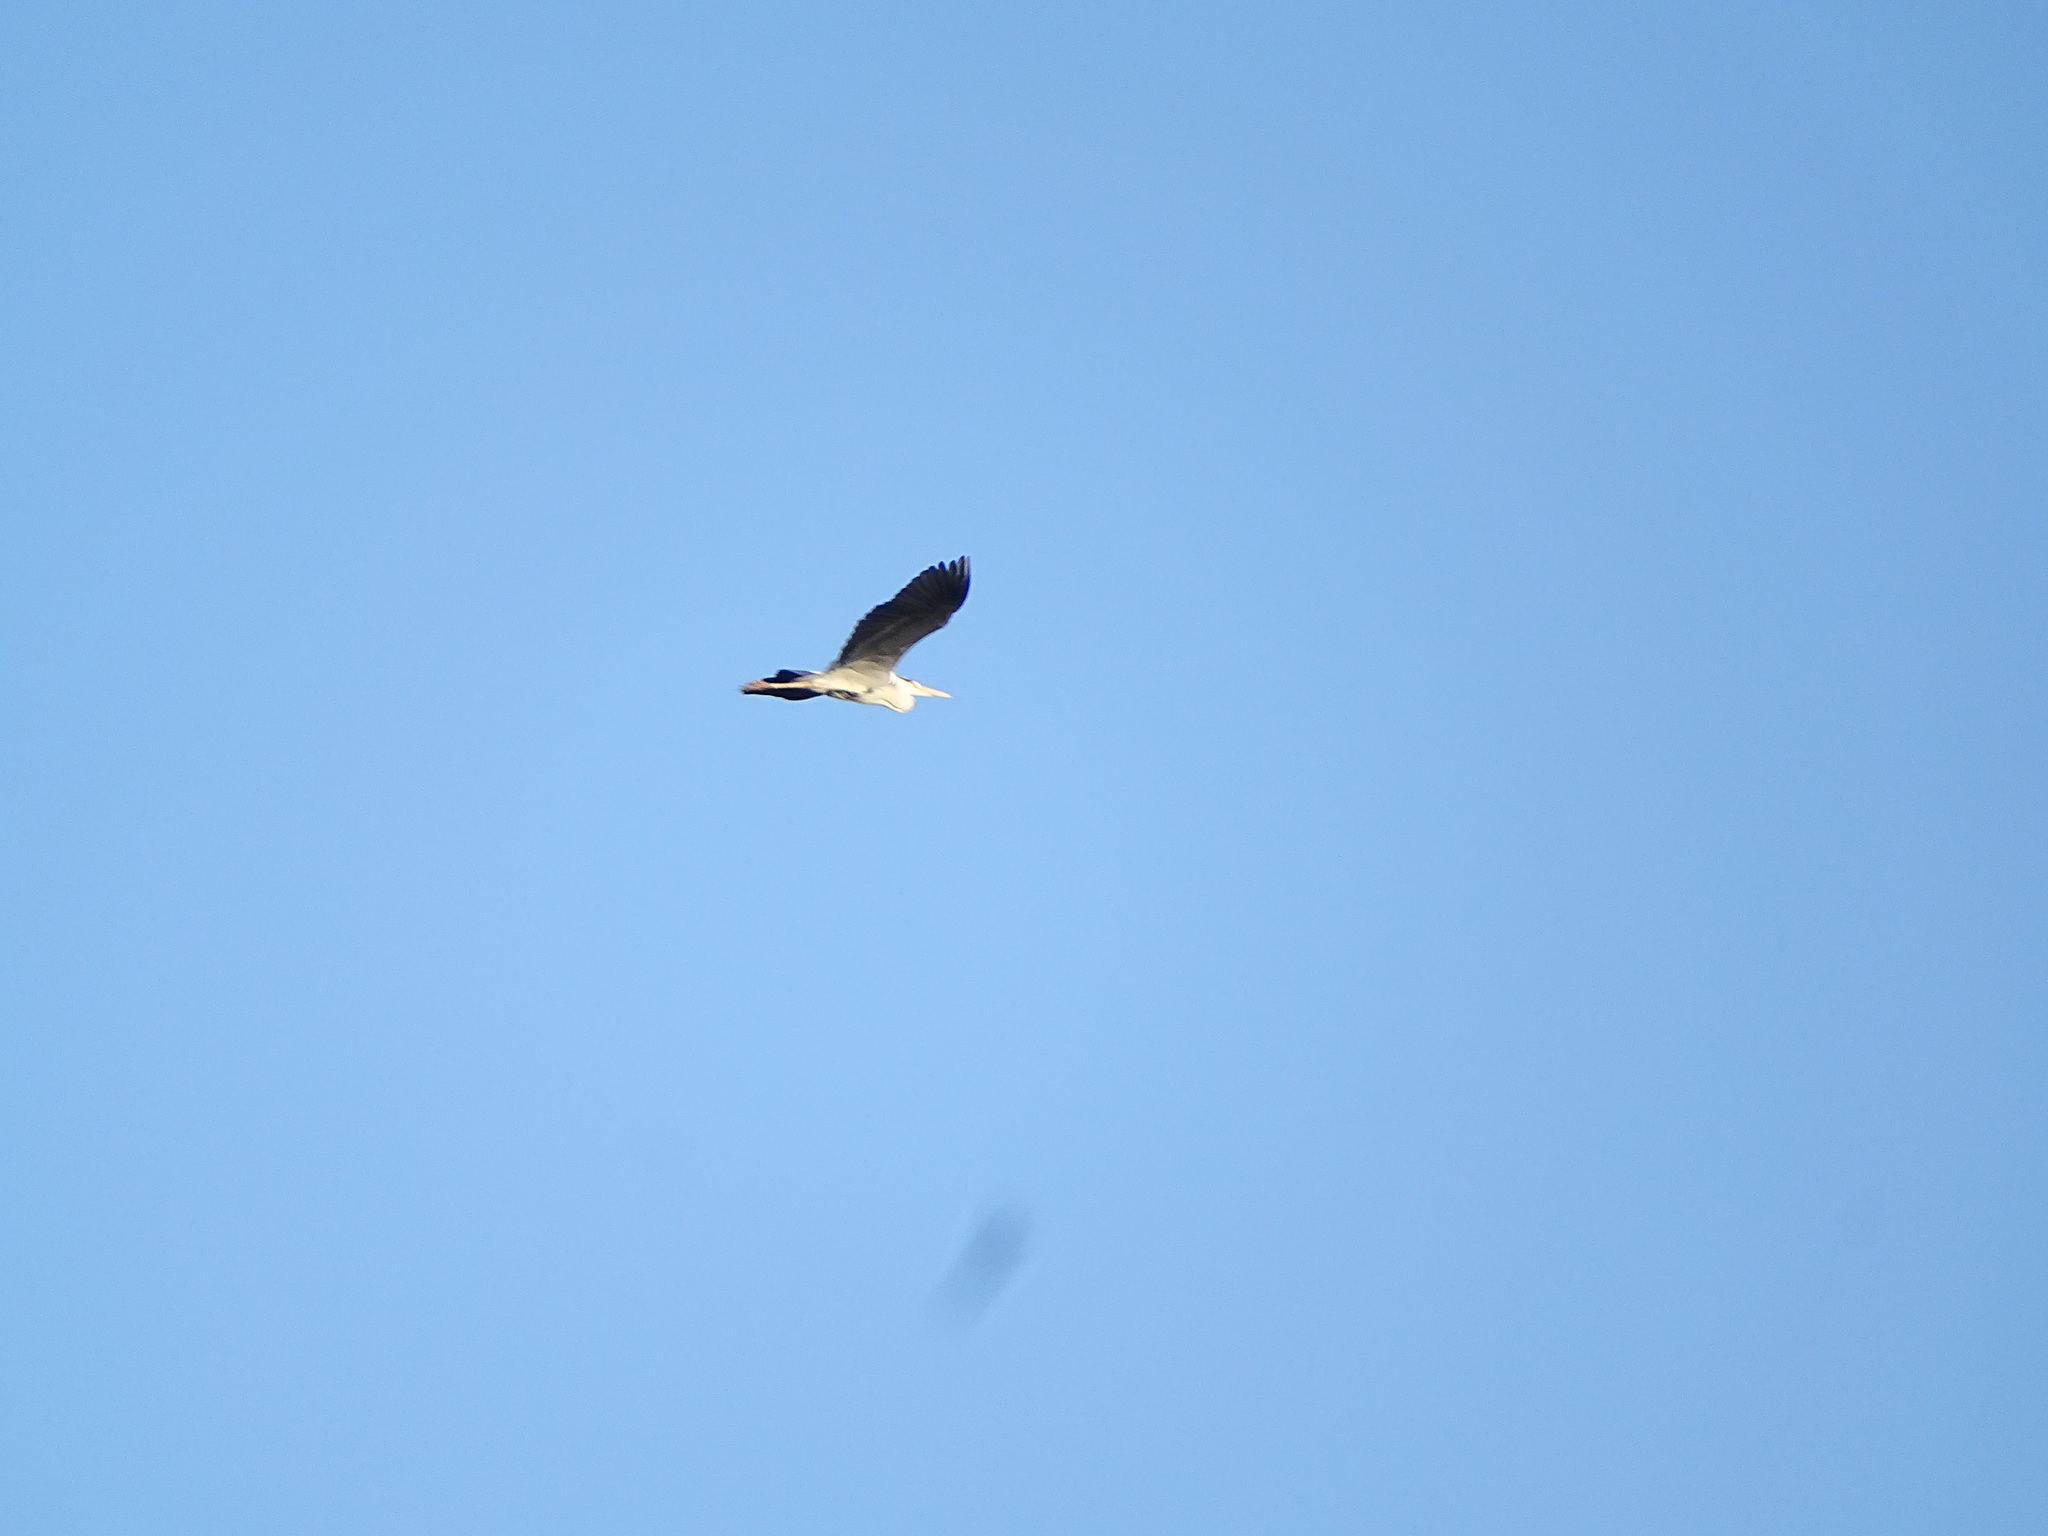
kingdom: Animalia
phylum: Chordata
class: Aves
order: Pelecaniformes
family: Ardeidae
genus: Ardea
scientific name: Ardea cinerea
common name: Grey heron
